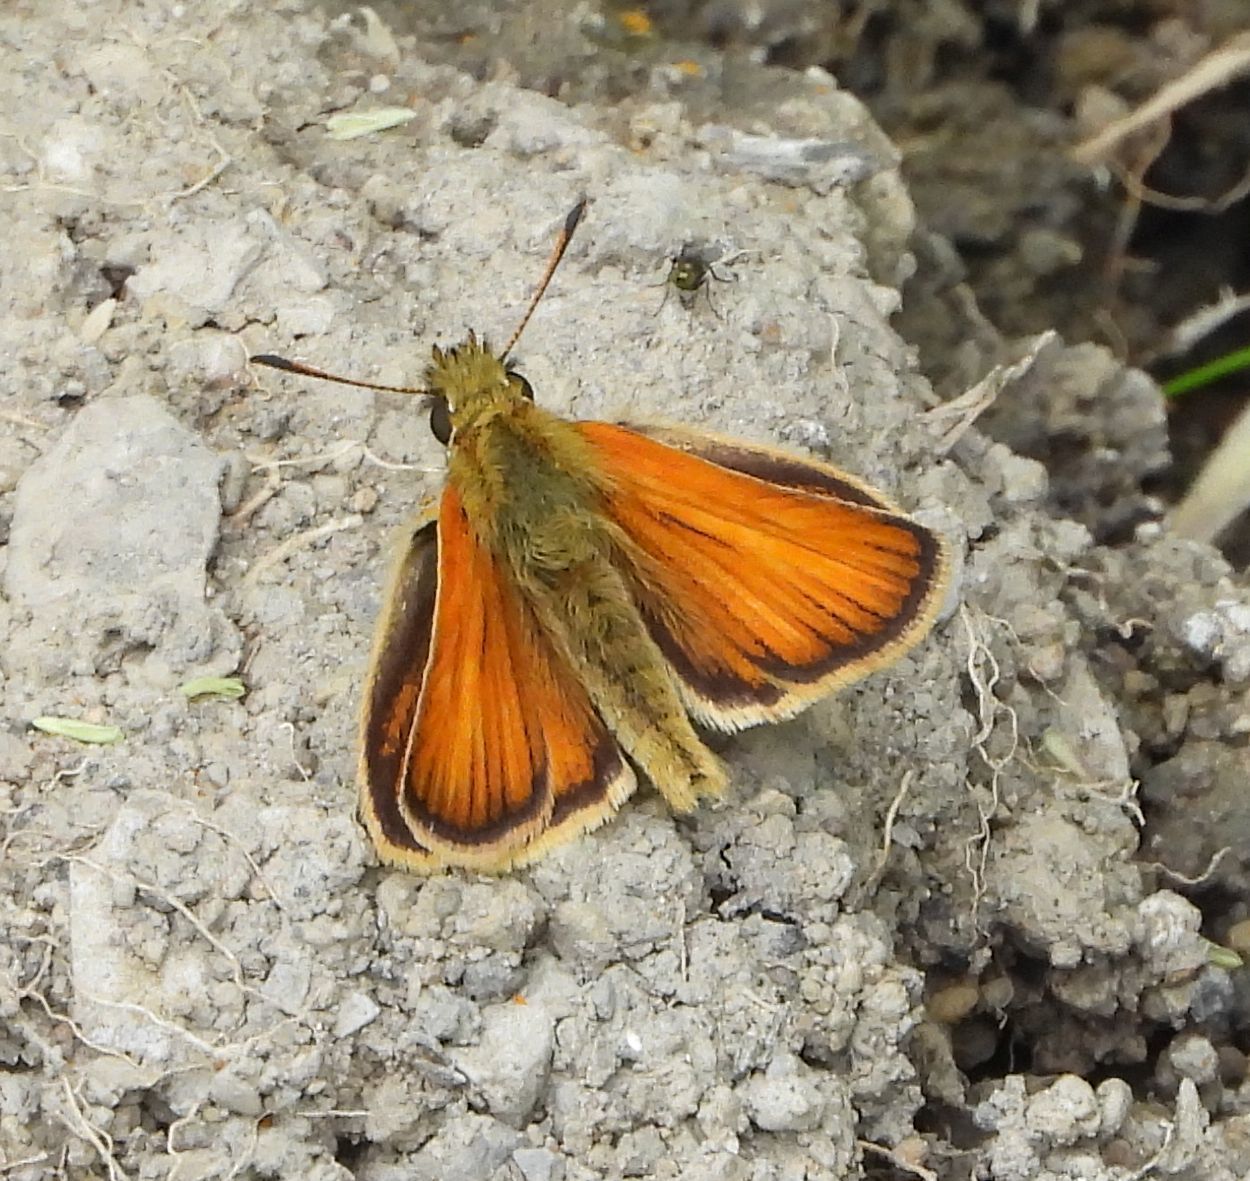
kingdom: Animalia
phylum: Arthropoda
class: Insecta
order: Lepidoptera
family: Hesperiidae
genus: Thymelicus
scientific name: Thymelicus lineola
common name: Essex skipper
